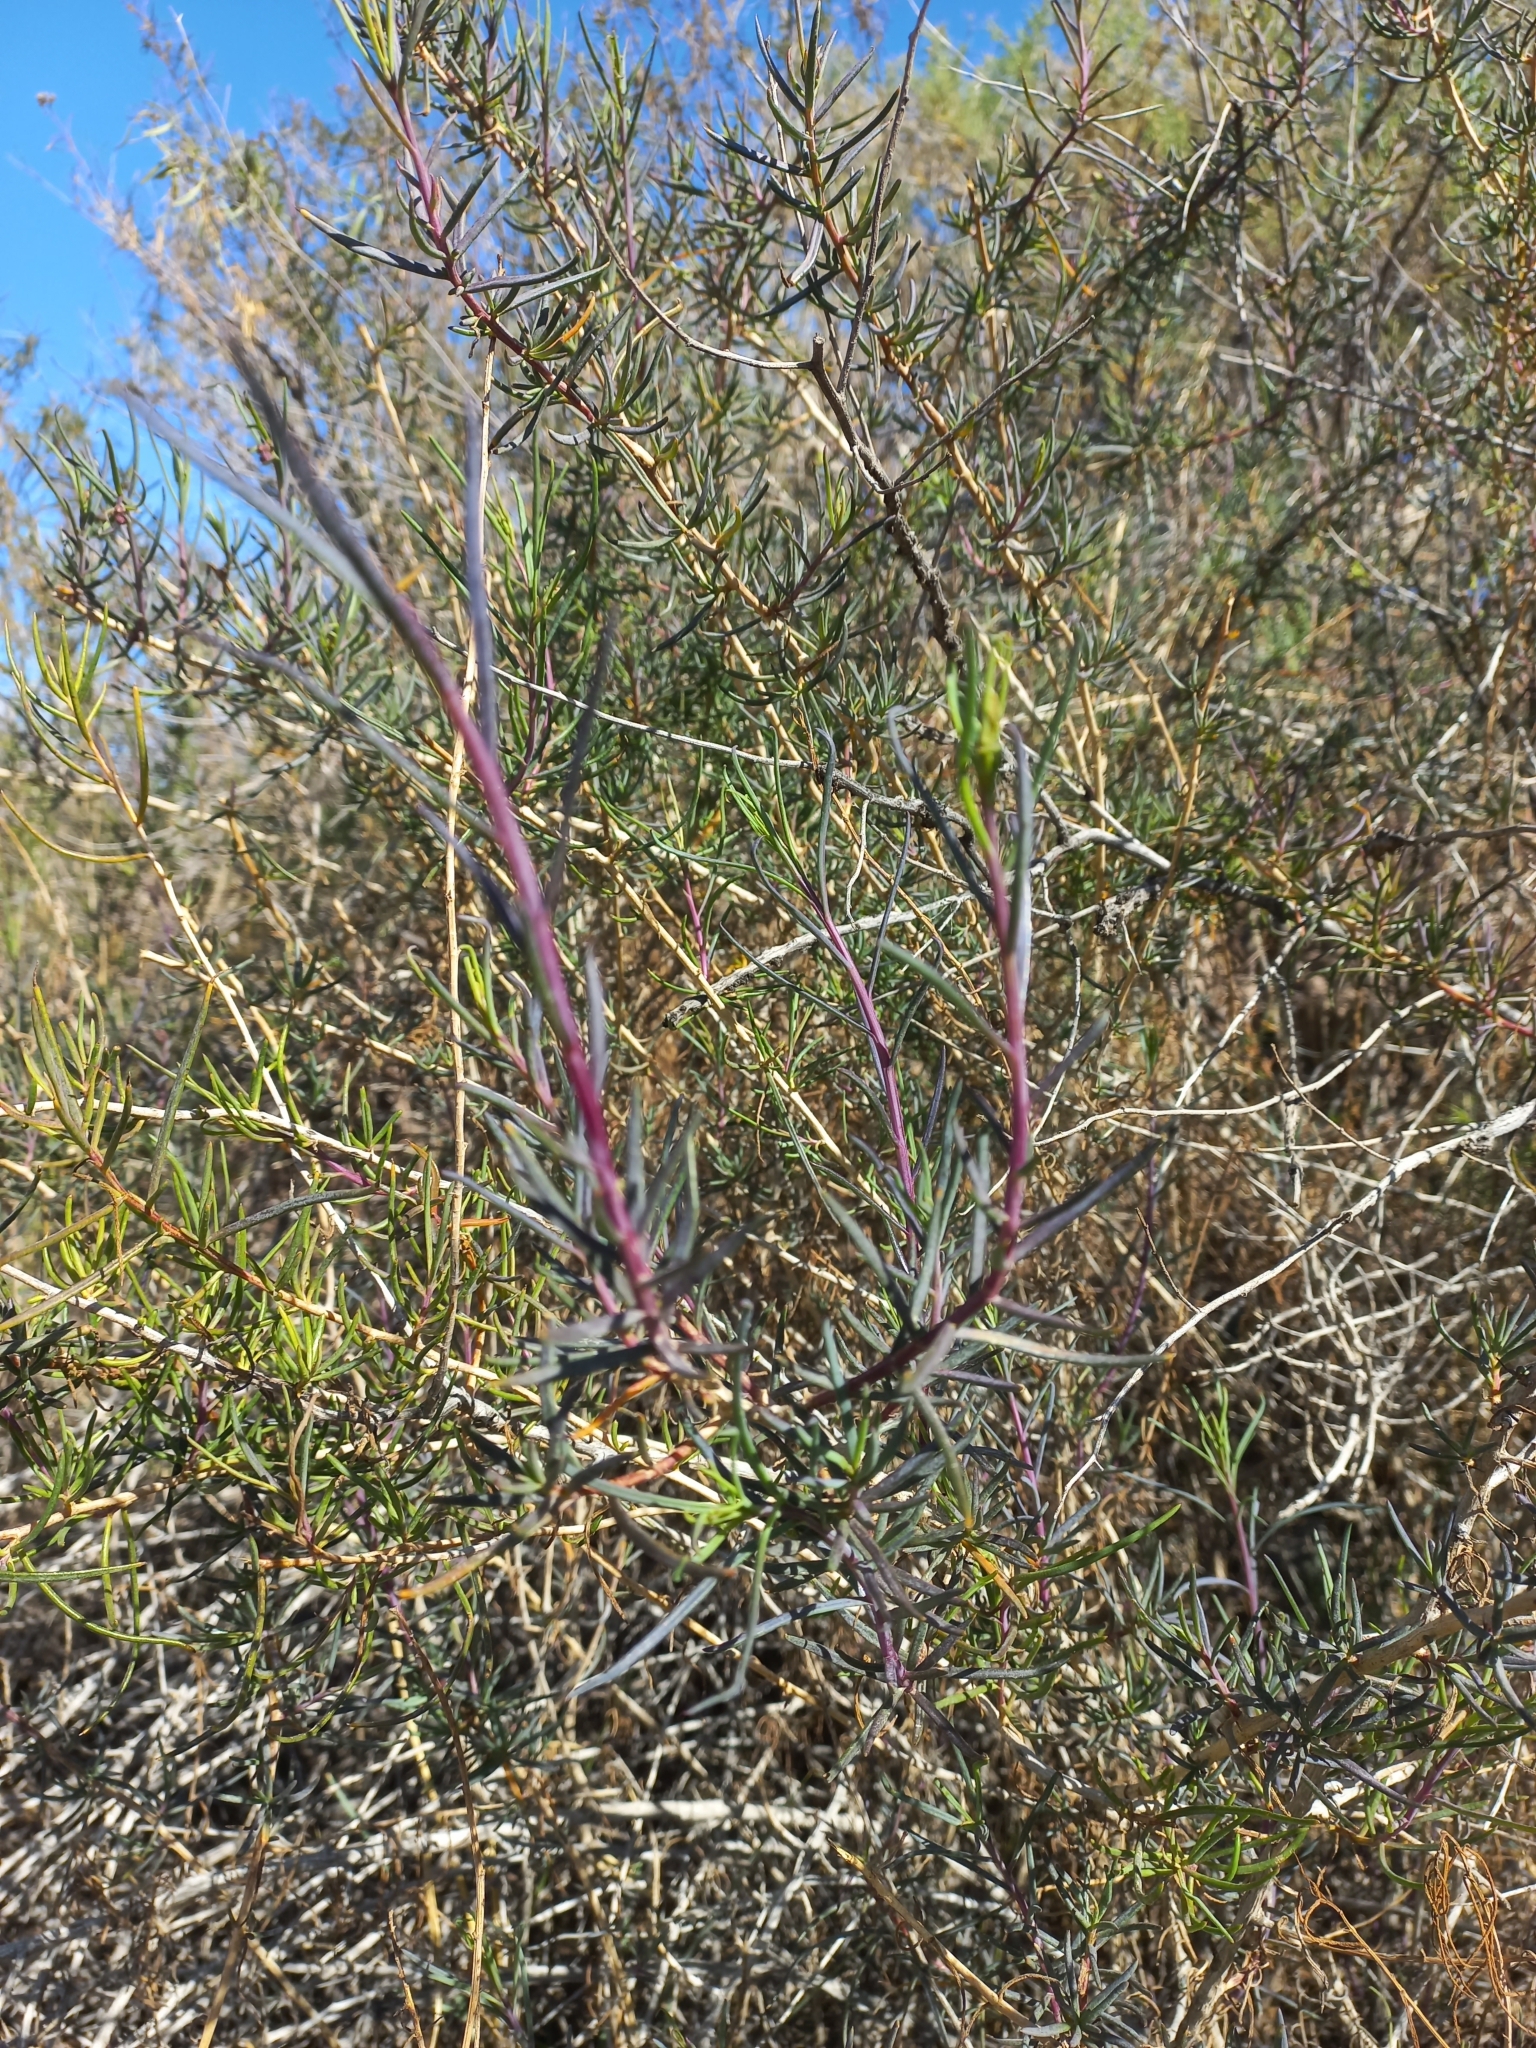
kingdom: Plantae
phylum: Tracheophyta
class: Magnoliopsida
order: Asterales
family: Asteraceae
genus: Senecio
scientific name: Senecio subulatus
